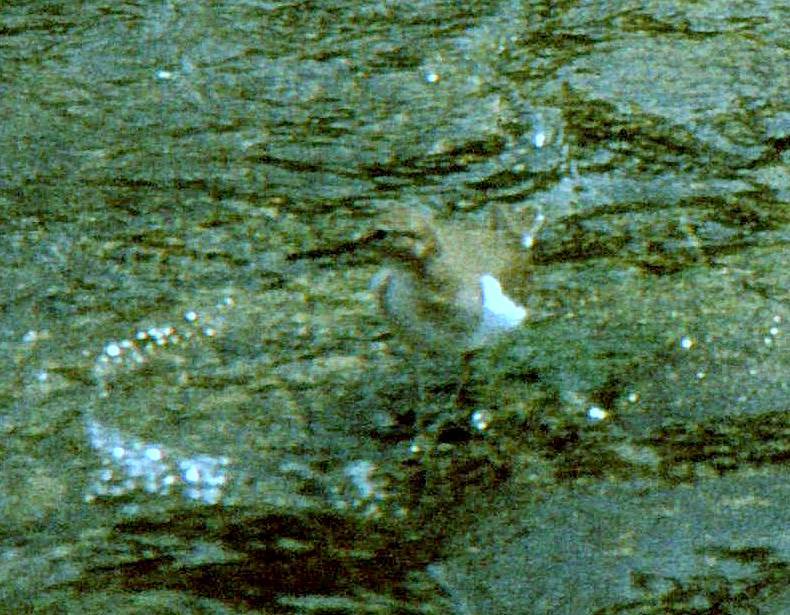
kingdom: Animalia
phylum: Chordata
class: Aves
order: Charadriiformes
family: Scolopacidae
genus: Actitis
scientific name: Actitis hypoleucos
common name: Common sandpiper
